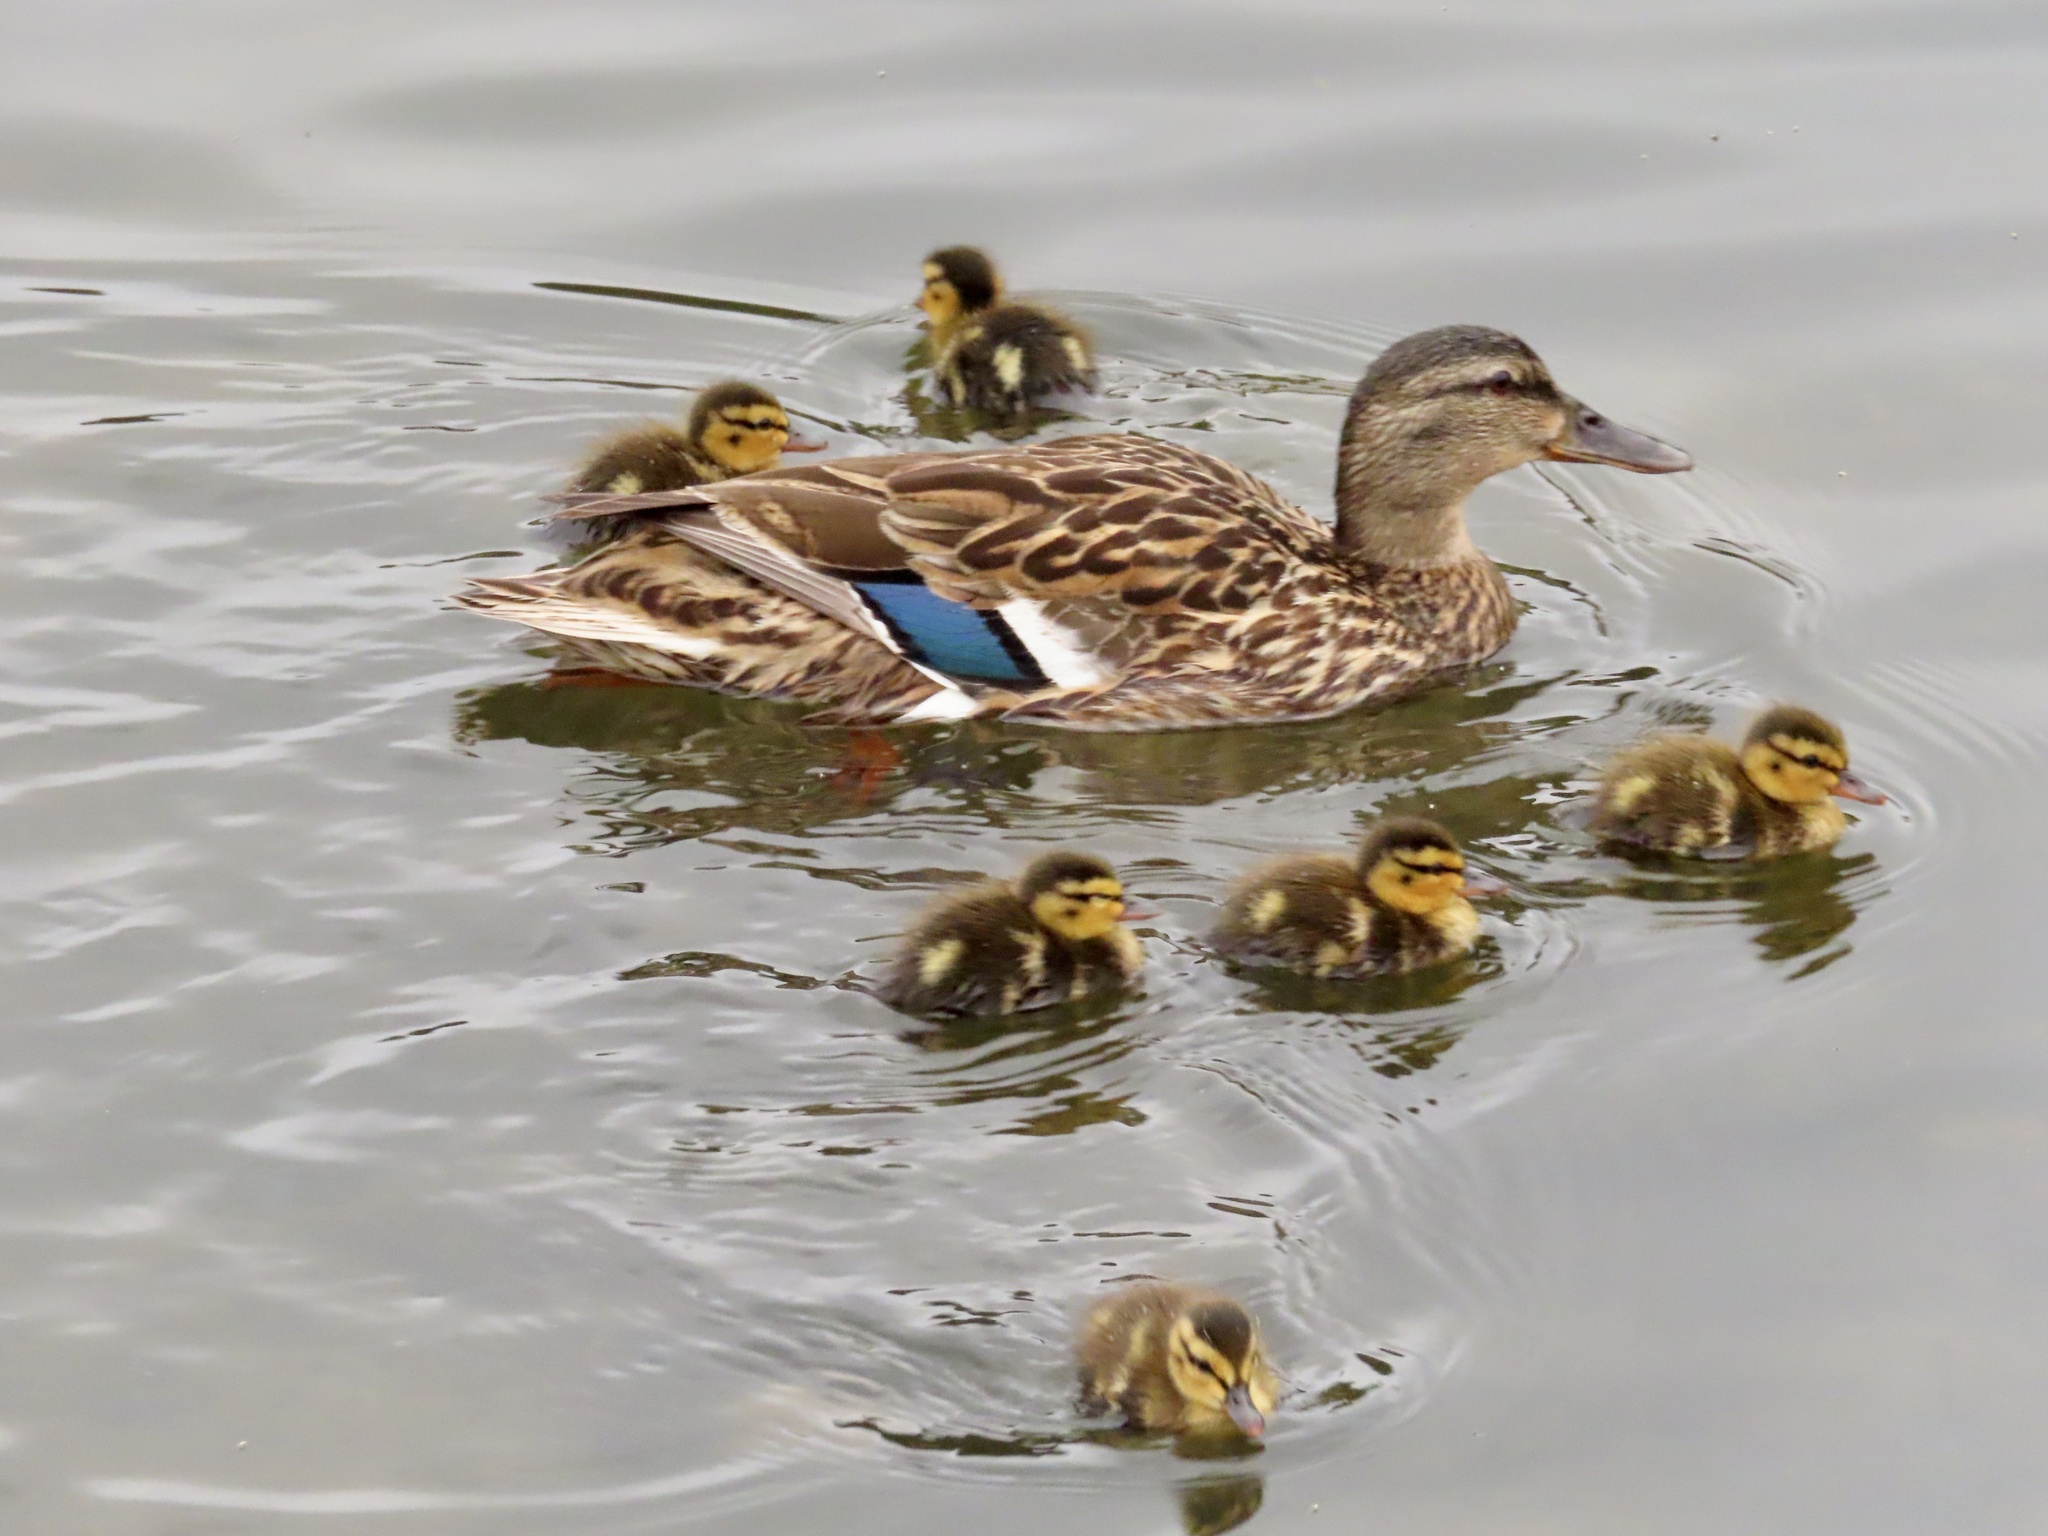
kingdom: Animalia
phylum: Chordata
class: Aves
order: Anseriformes
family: Anatidae
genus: Anas
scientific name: Anas platyrhynchos
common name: Mallard
